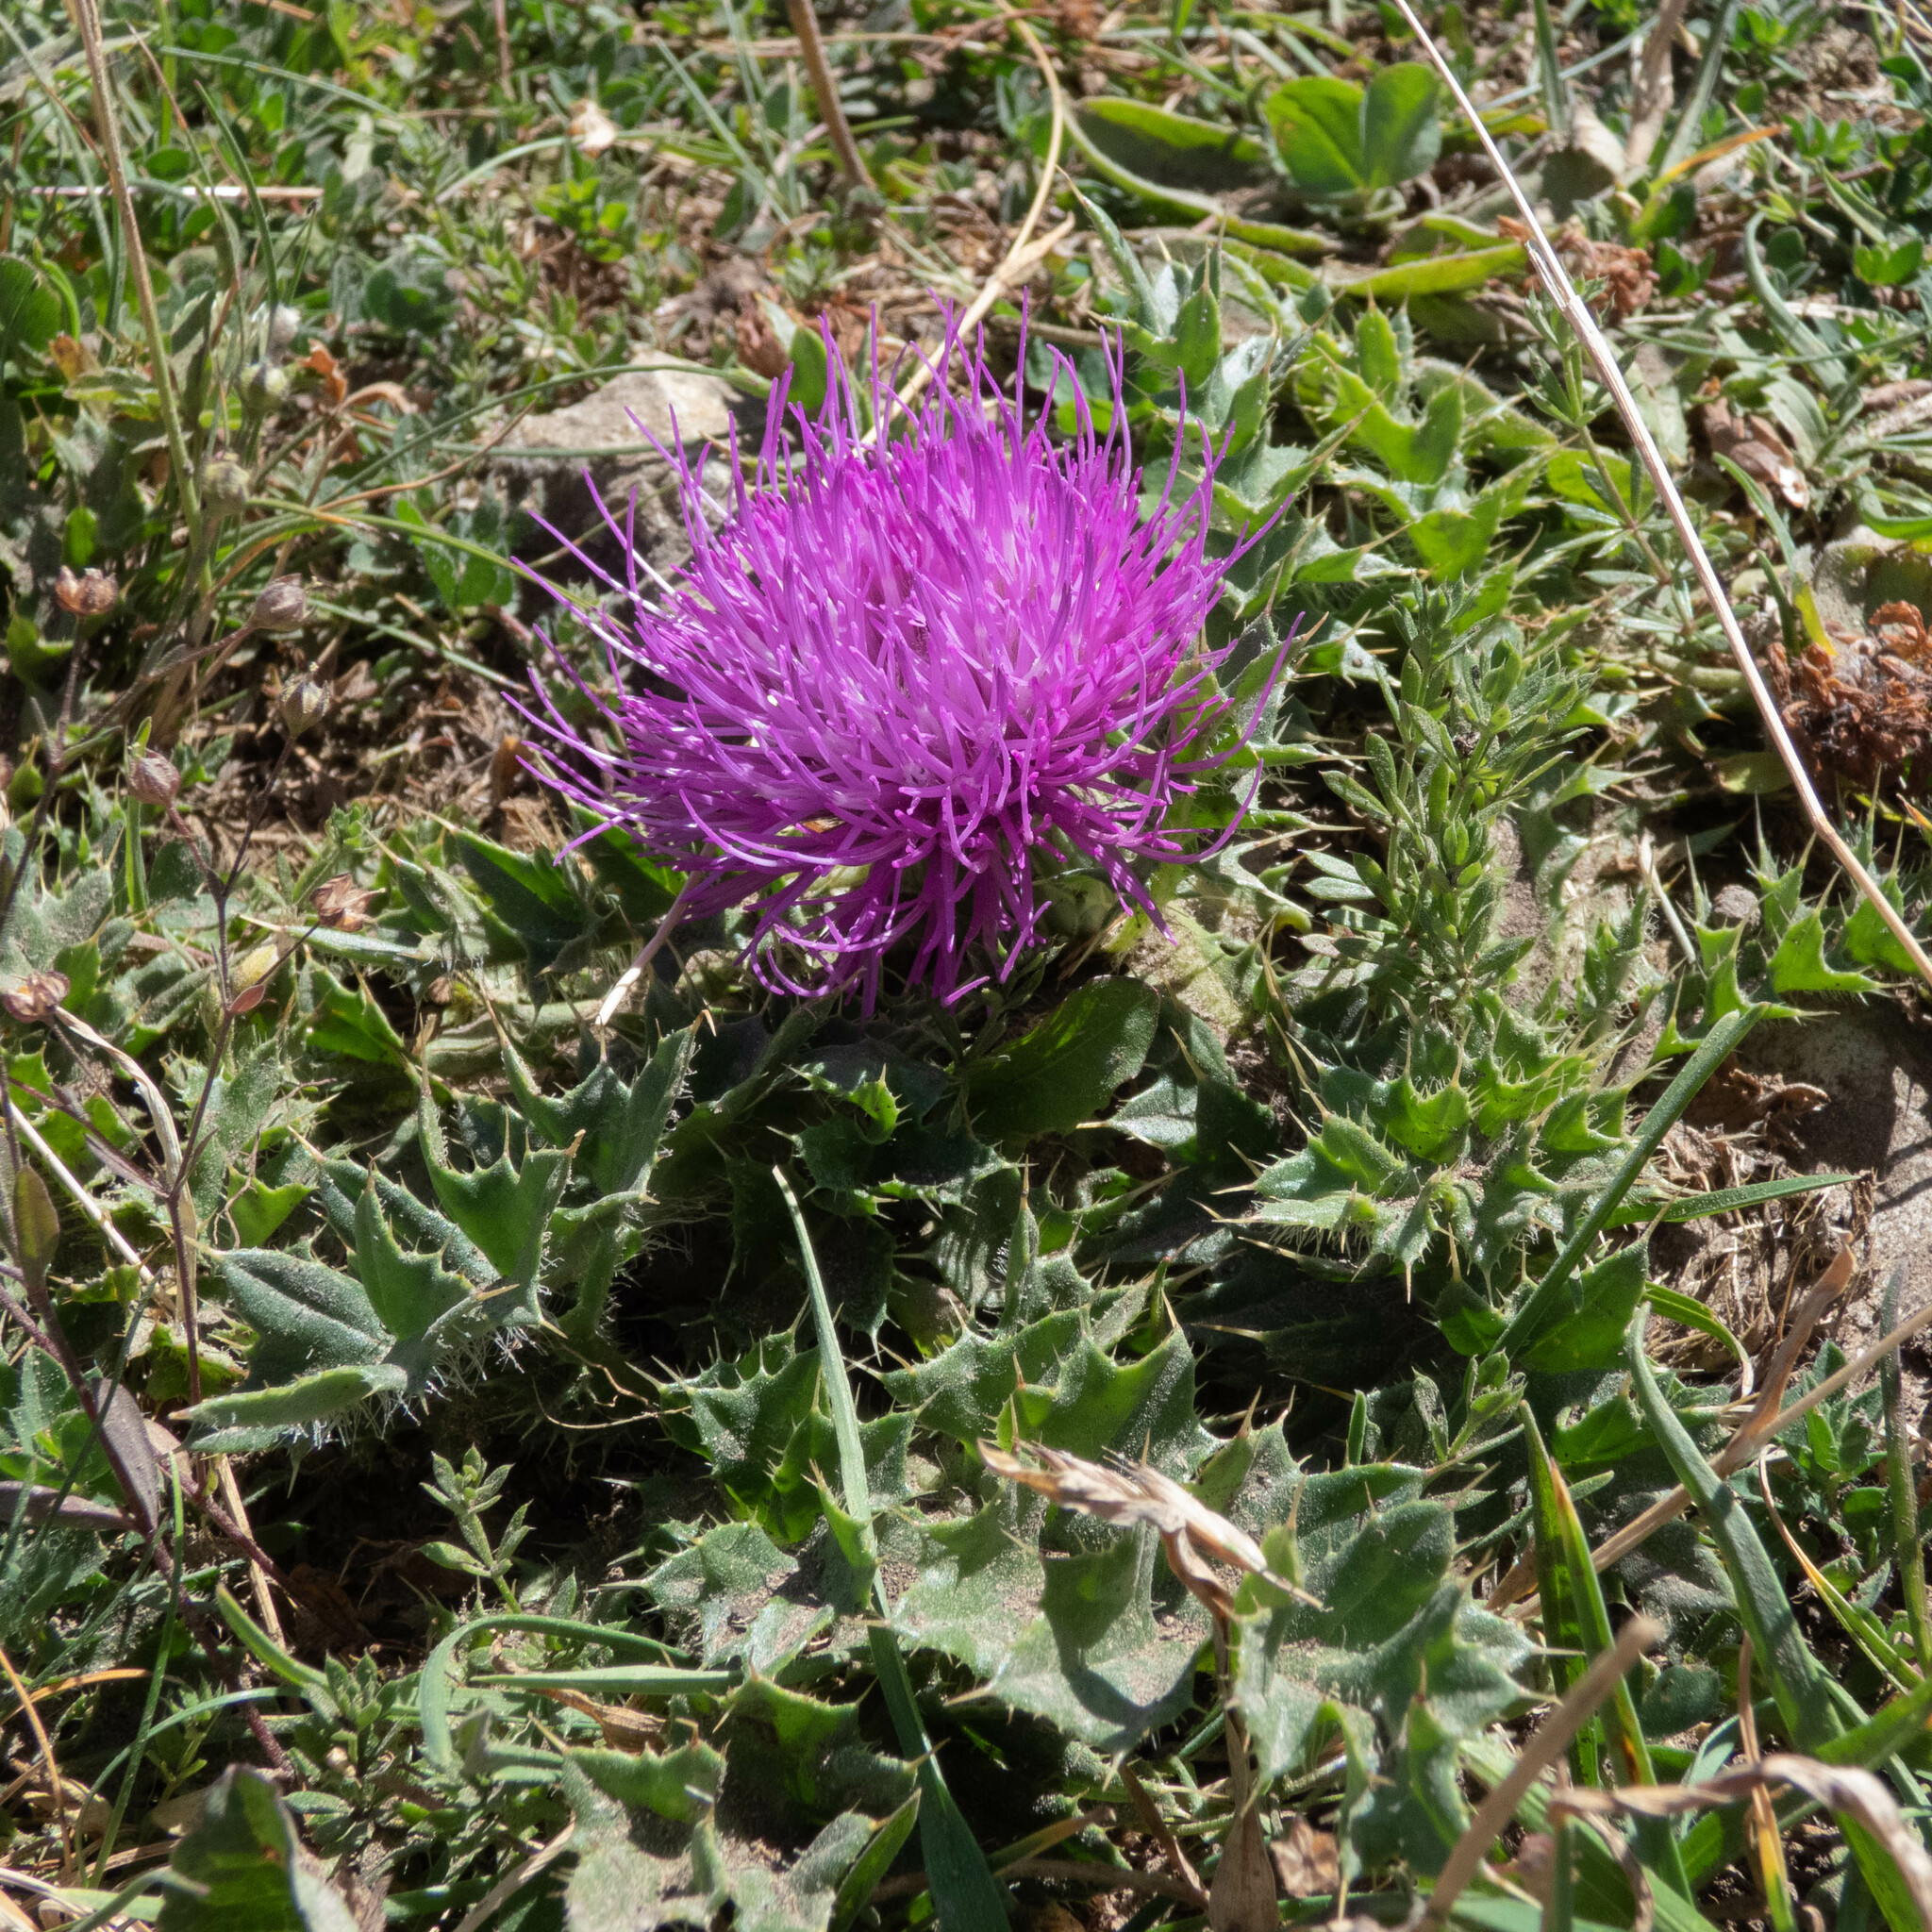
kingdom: Plantae
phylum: Tracheophyta
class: Magnoliopsida
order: Asterales
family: Asteraceae
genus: Cirsium
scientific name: Cirsium acaulon
